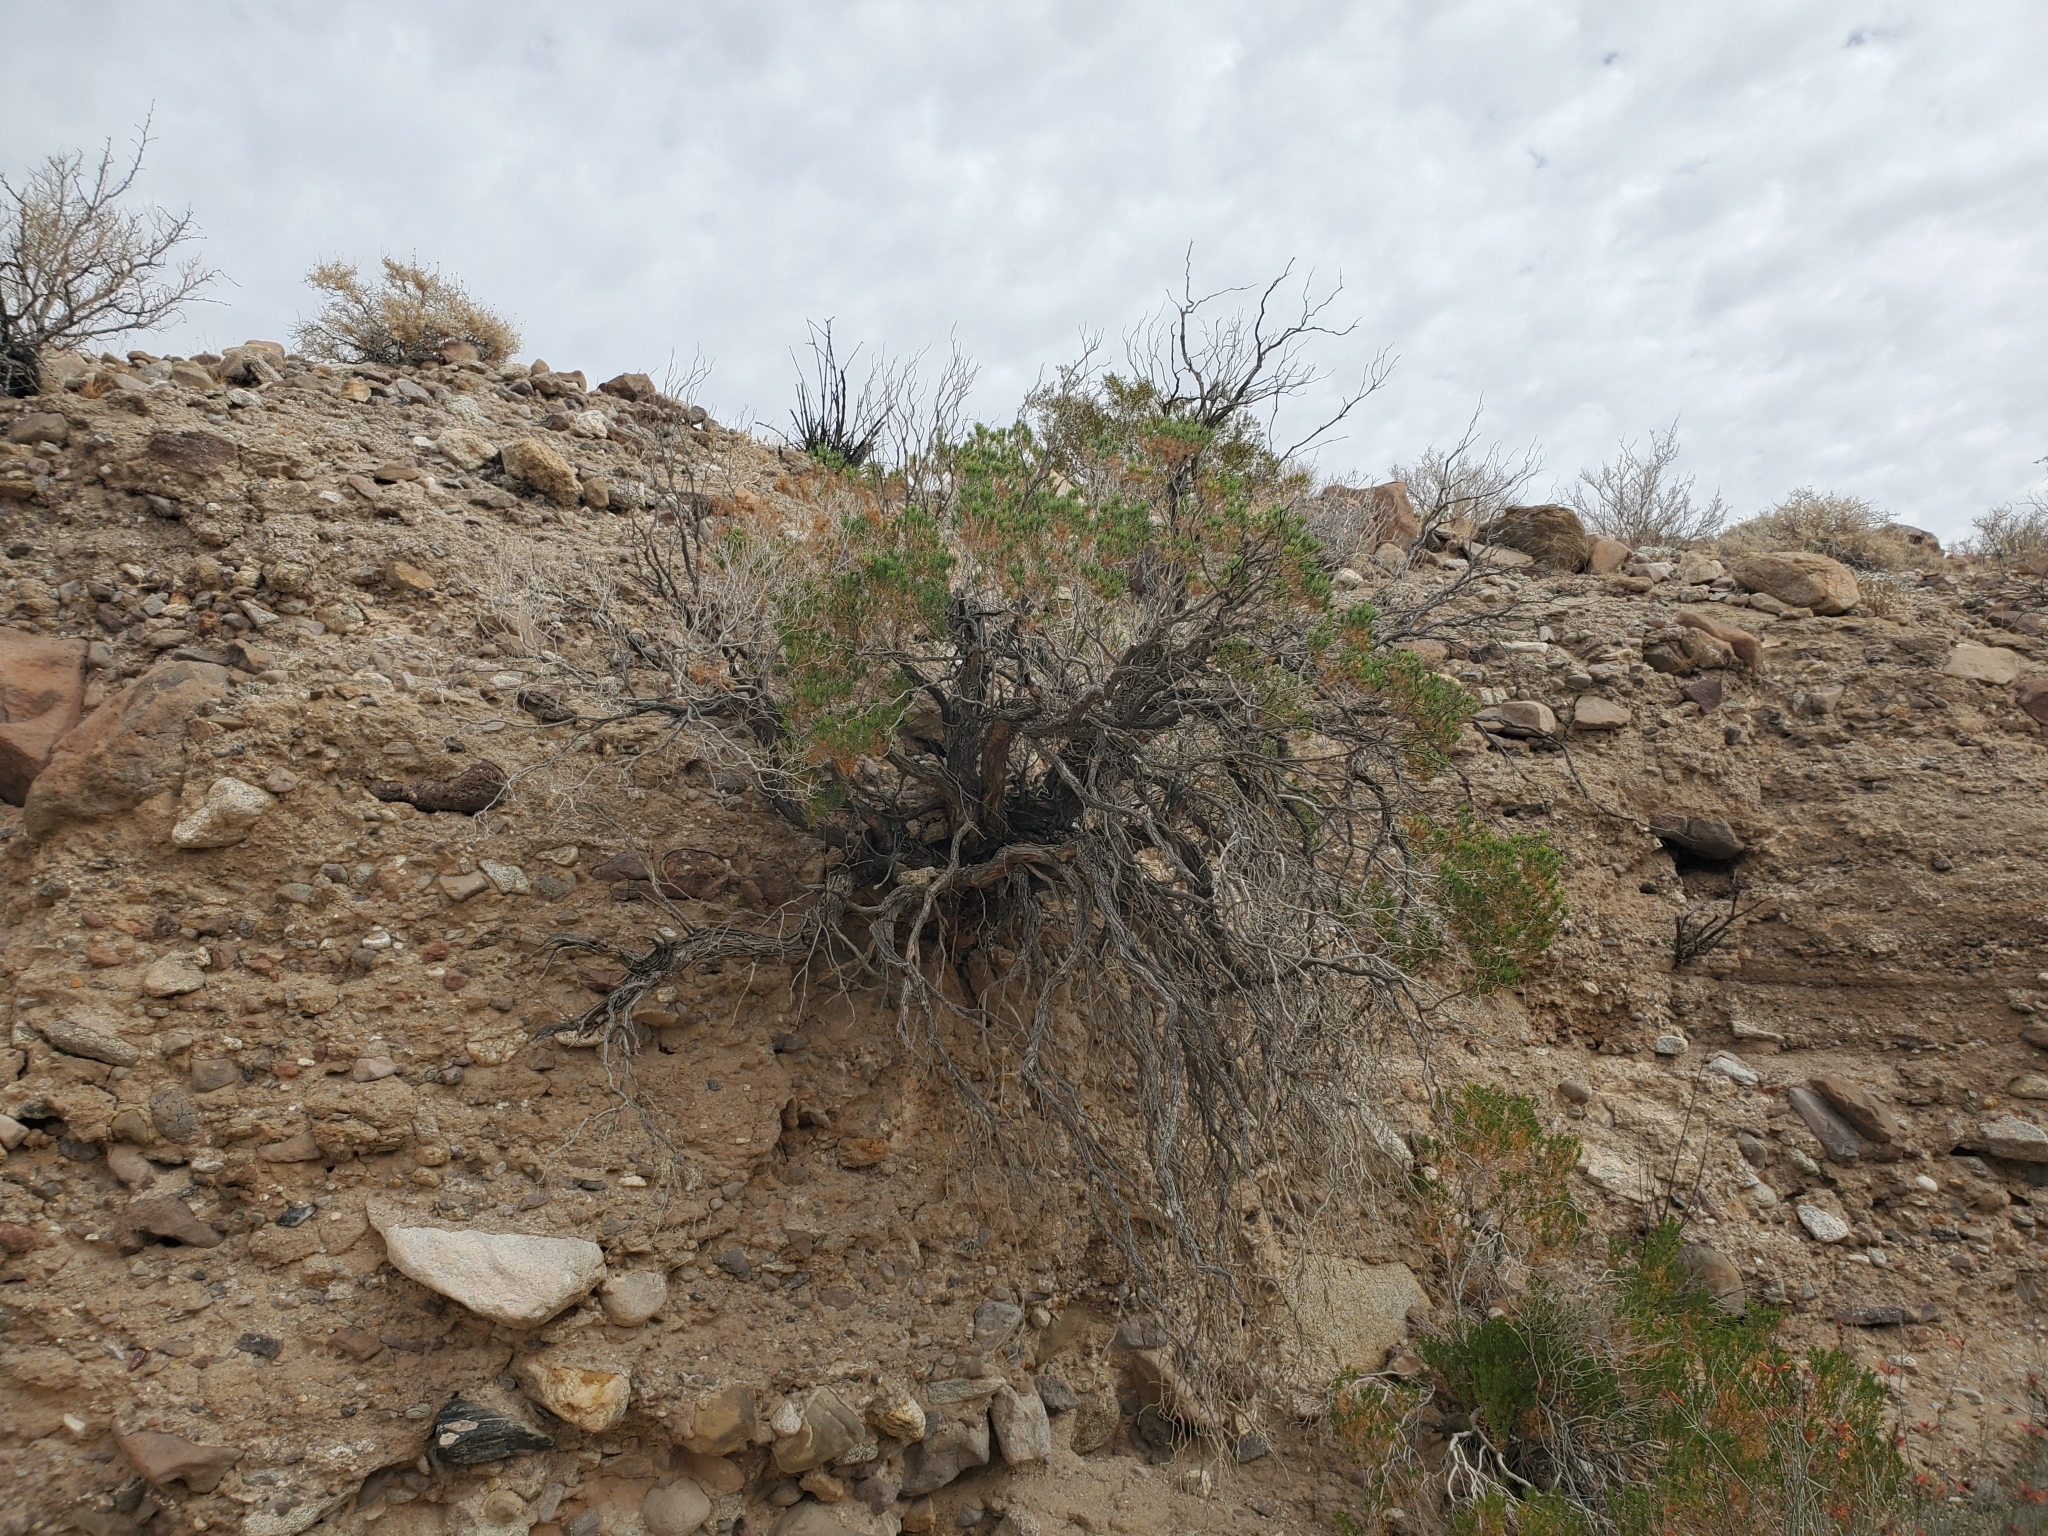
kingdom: Plantae
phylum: Tracheophyta
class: Magnoliopsida
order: Asterales
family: Asteraceae
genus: Peucephyllum
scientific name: Peucephyllum schottii
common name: Pygmy-cedar
